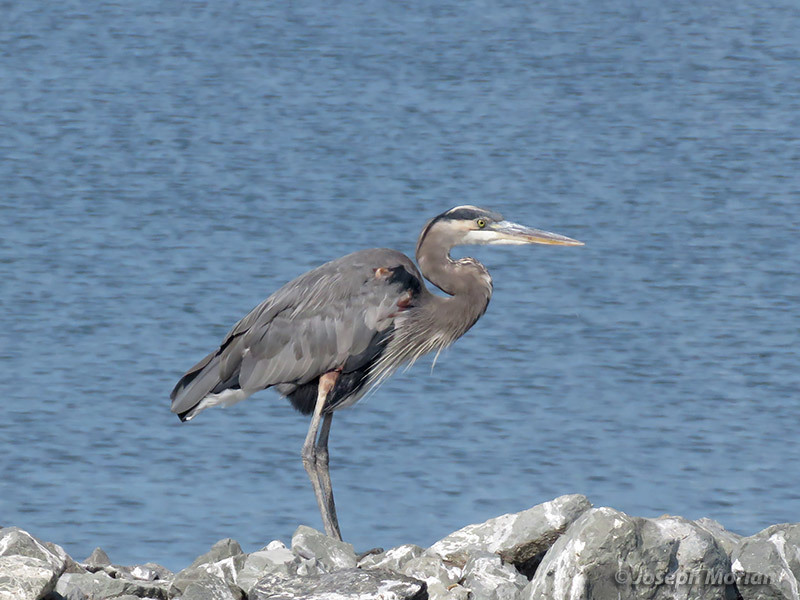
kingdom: Animalia
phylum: Chordata
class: Aves
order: Pelecaniformes
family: Ardeidae
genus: Ardea
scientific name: Ardea herodias
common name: Great blue heron
